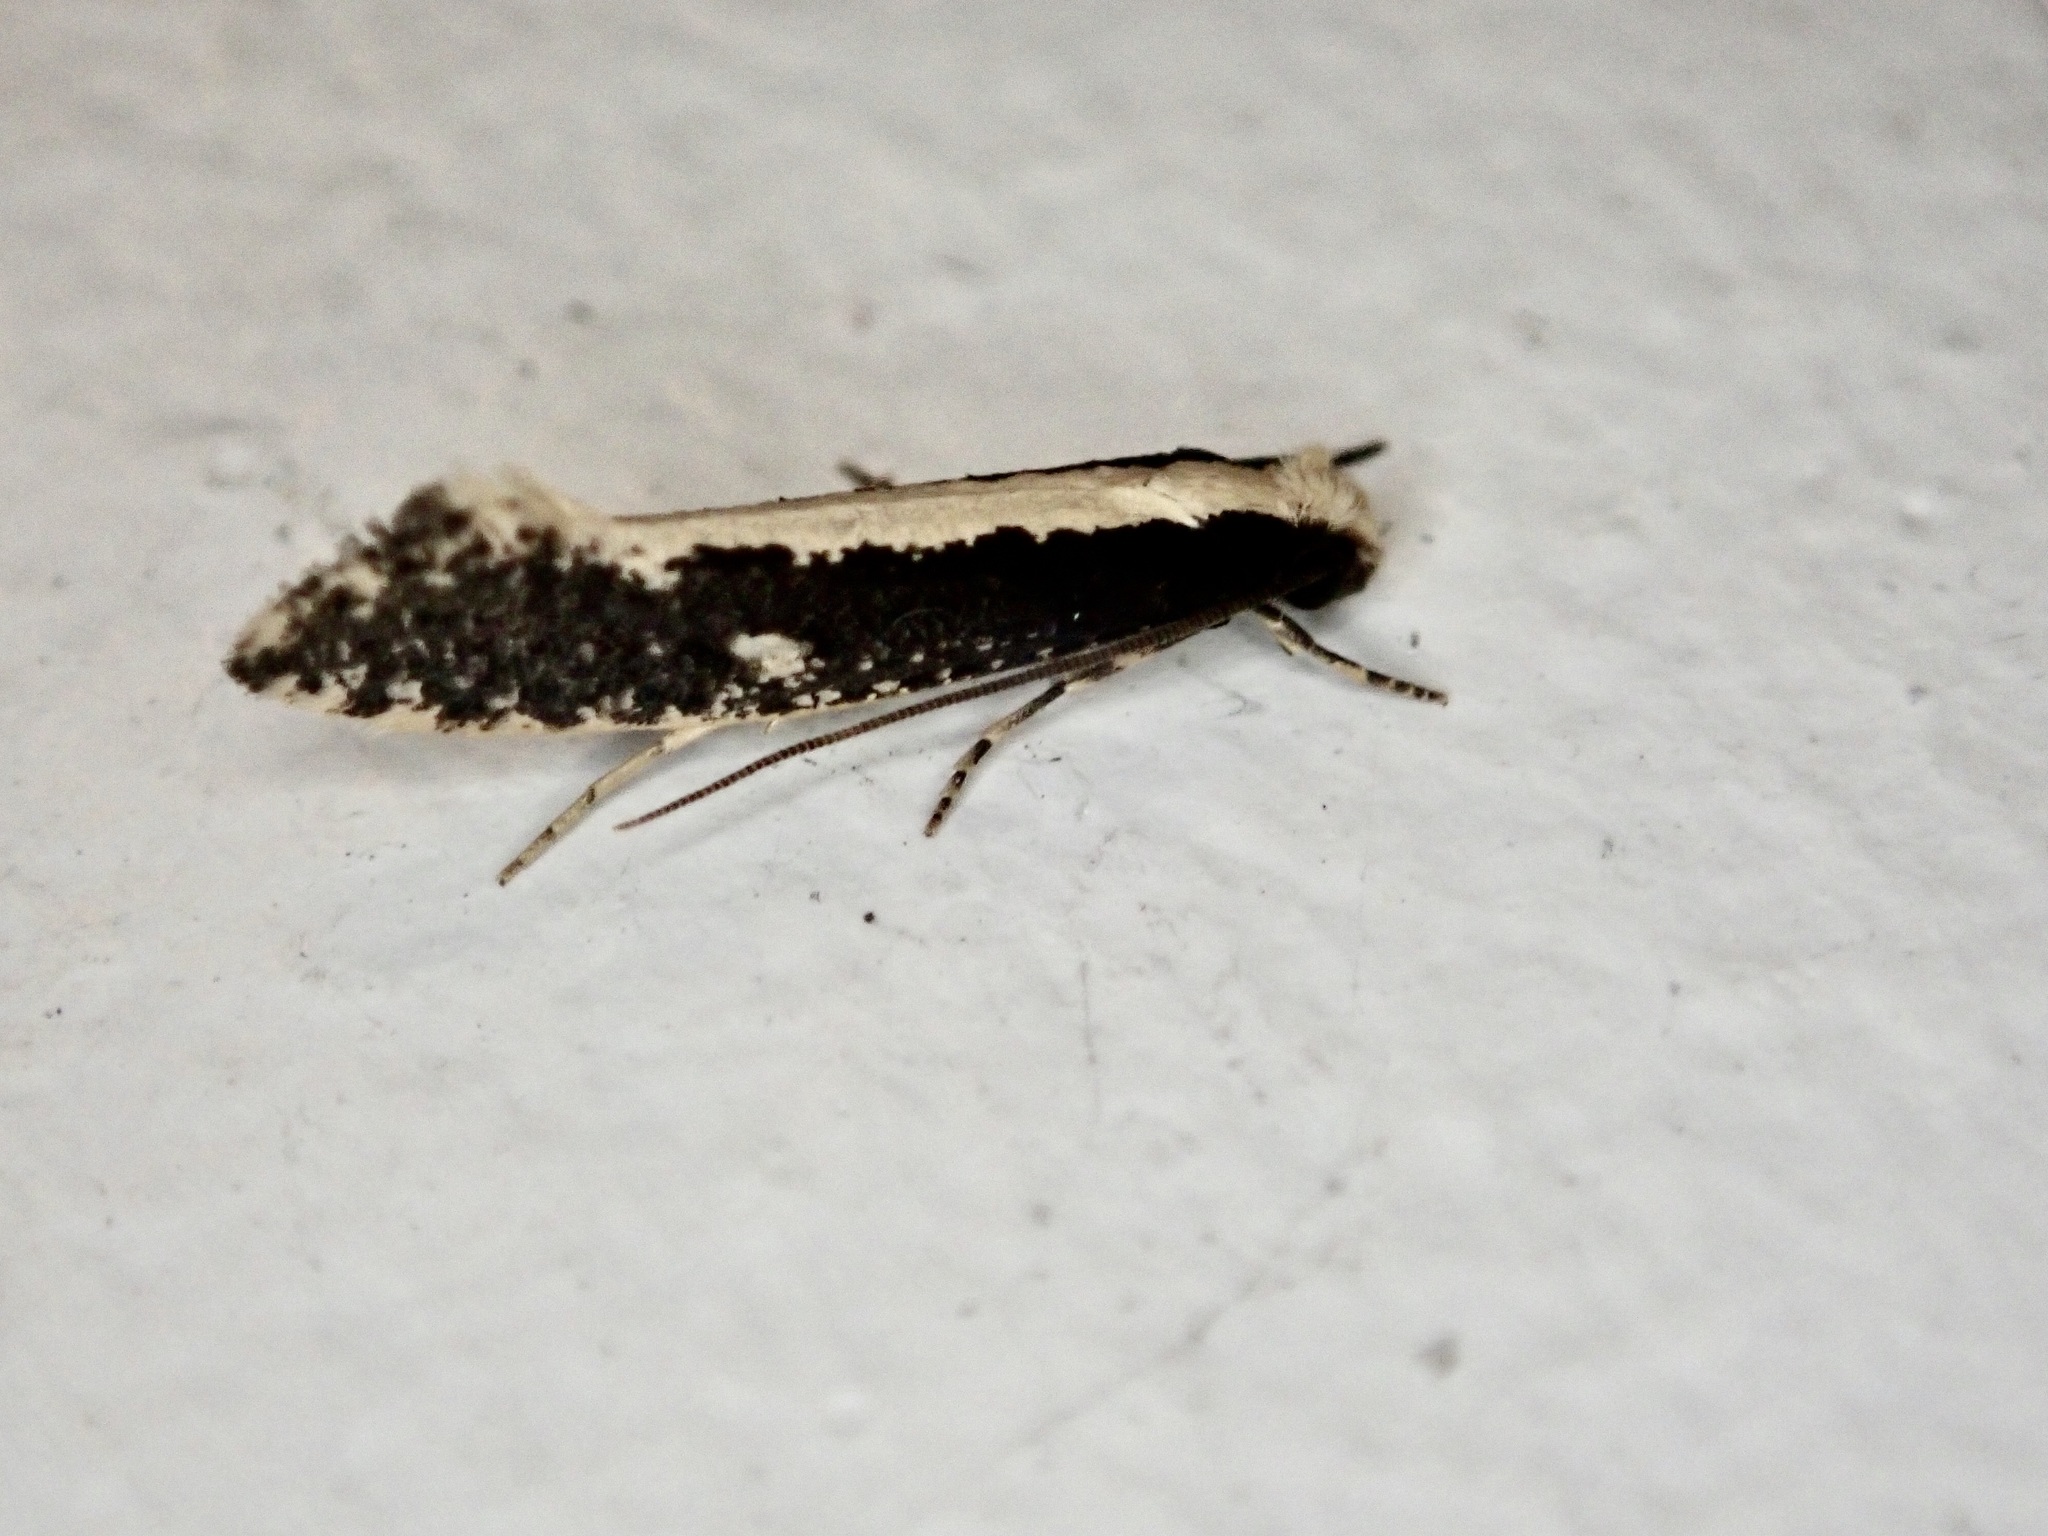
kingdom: Animalia
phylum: Arthropoda
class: Insecta
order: Lepidoptera
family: Tineidae
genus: Monopis
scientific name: Monopis ethelella
